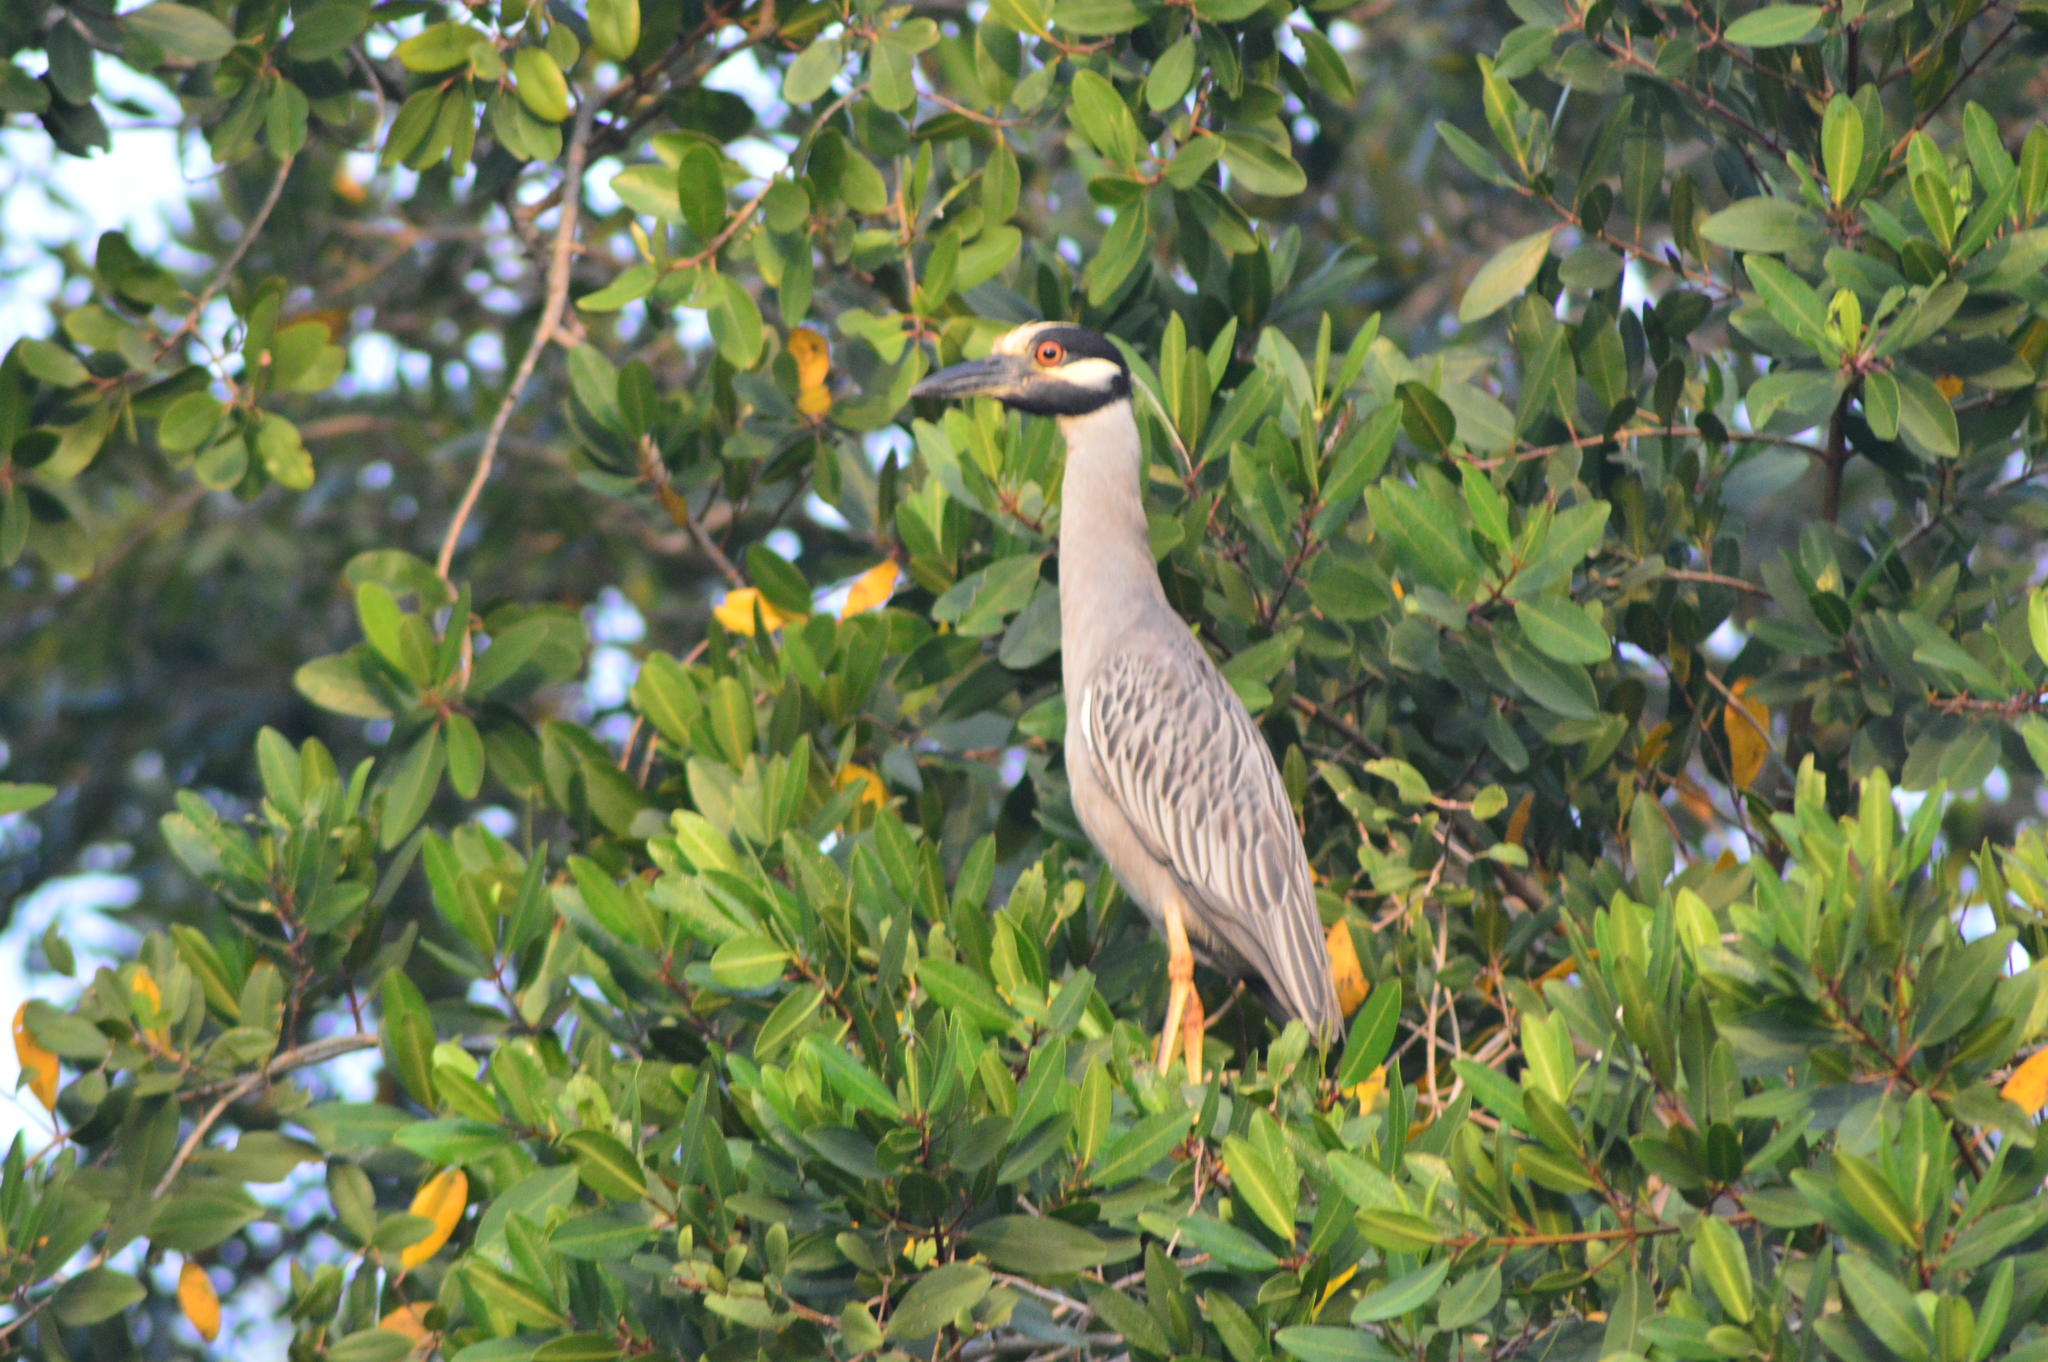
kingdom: Animalia
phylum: Chordata
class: Aves
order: Pelecaniformes
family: Ardeidae
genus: Nyctanassa
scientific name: Nyctanassa violacea
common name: Yellow-crowned night heron
